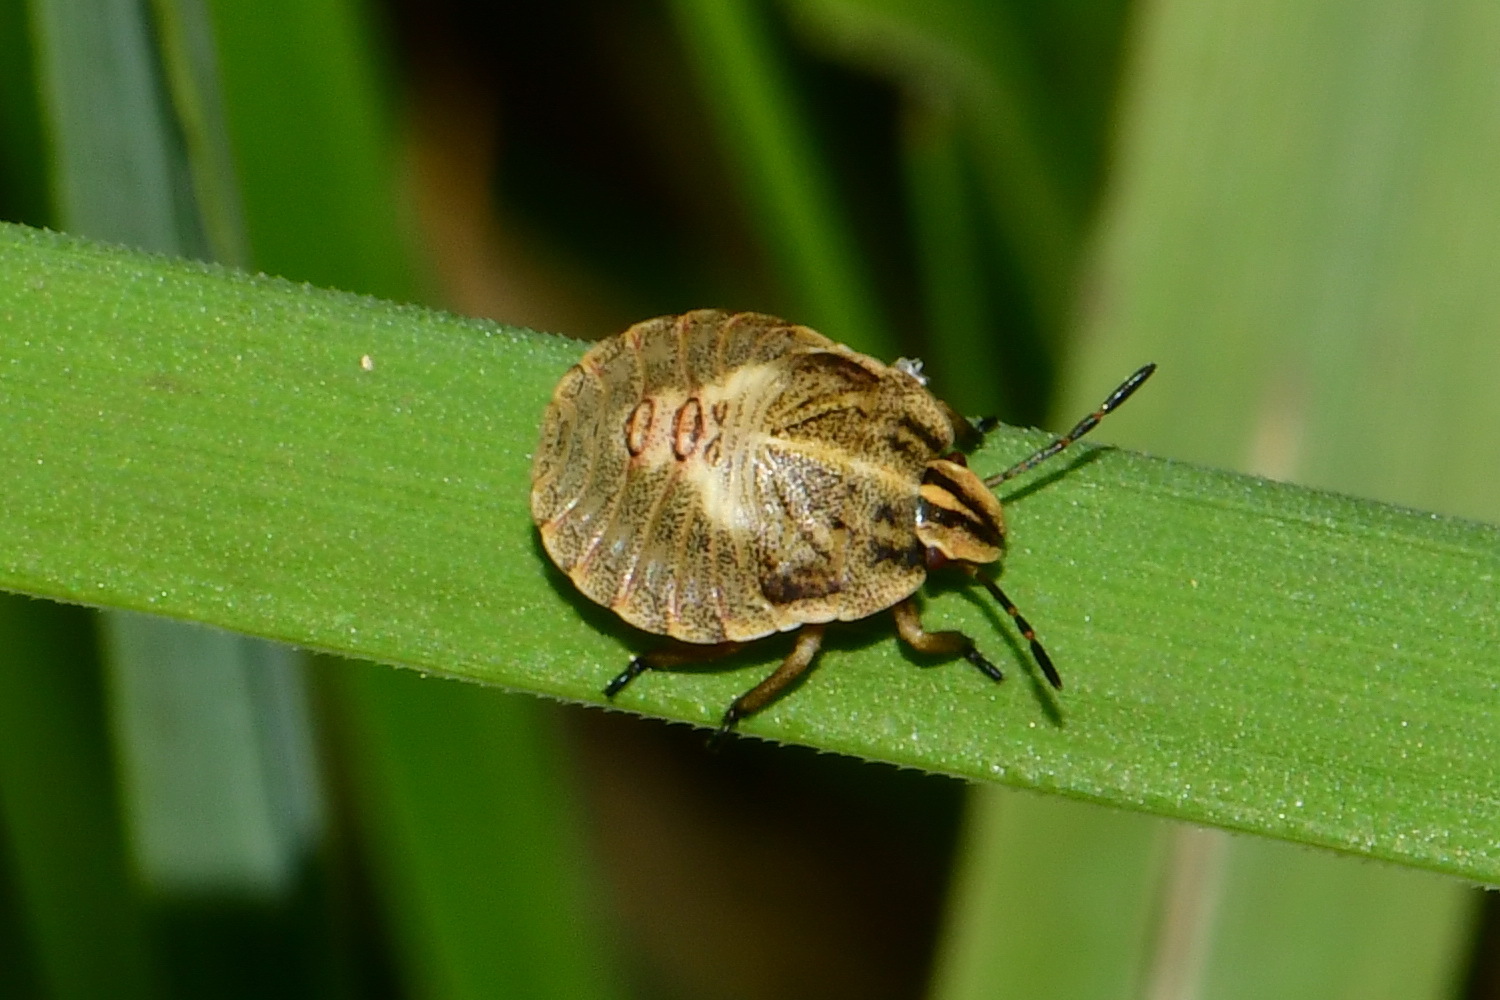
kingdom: Animalia
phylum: Arthropoda
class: Insecta
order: Hemiptera
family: Pentatomidae
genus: Graphosoma
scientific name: Graphosoma italicum
